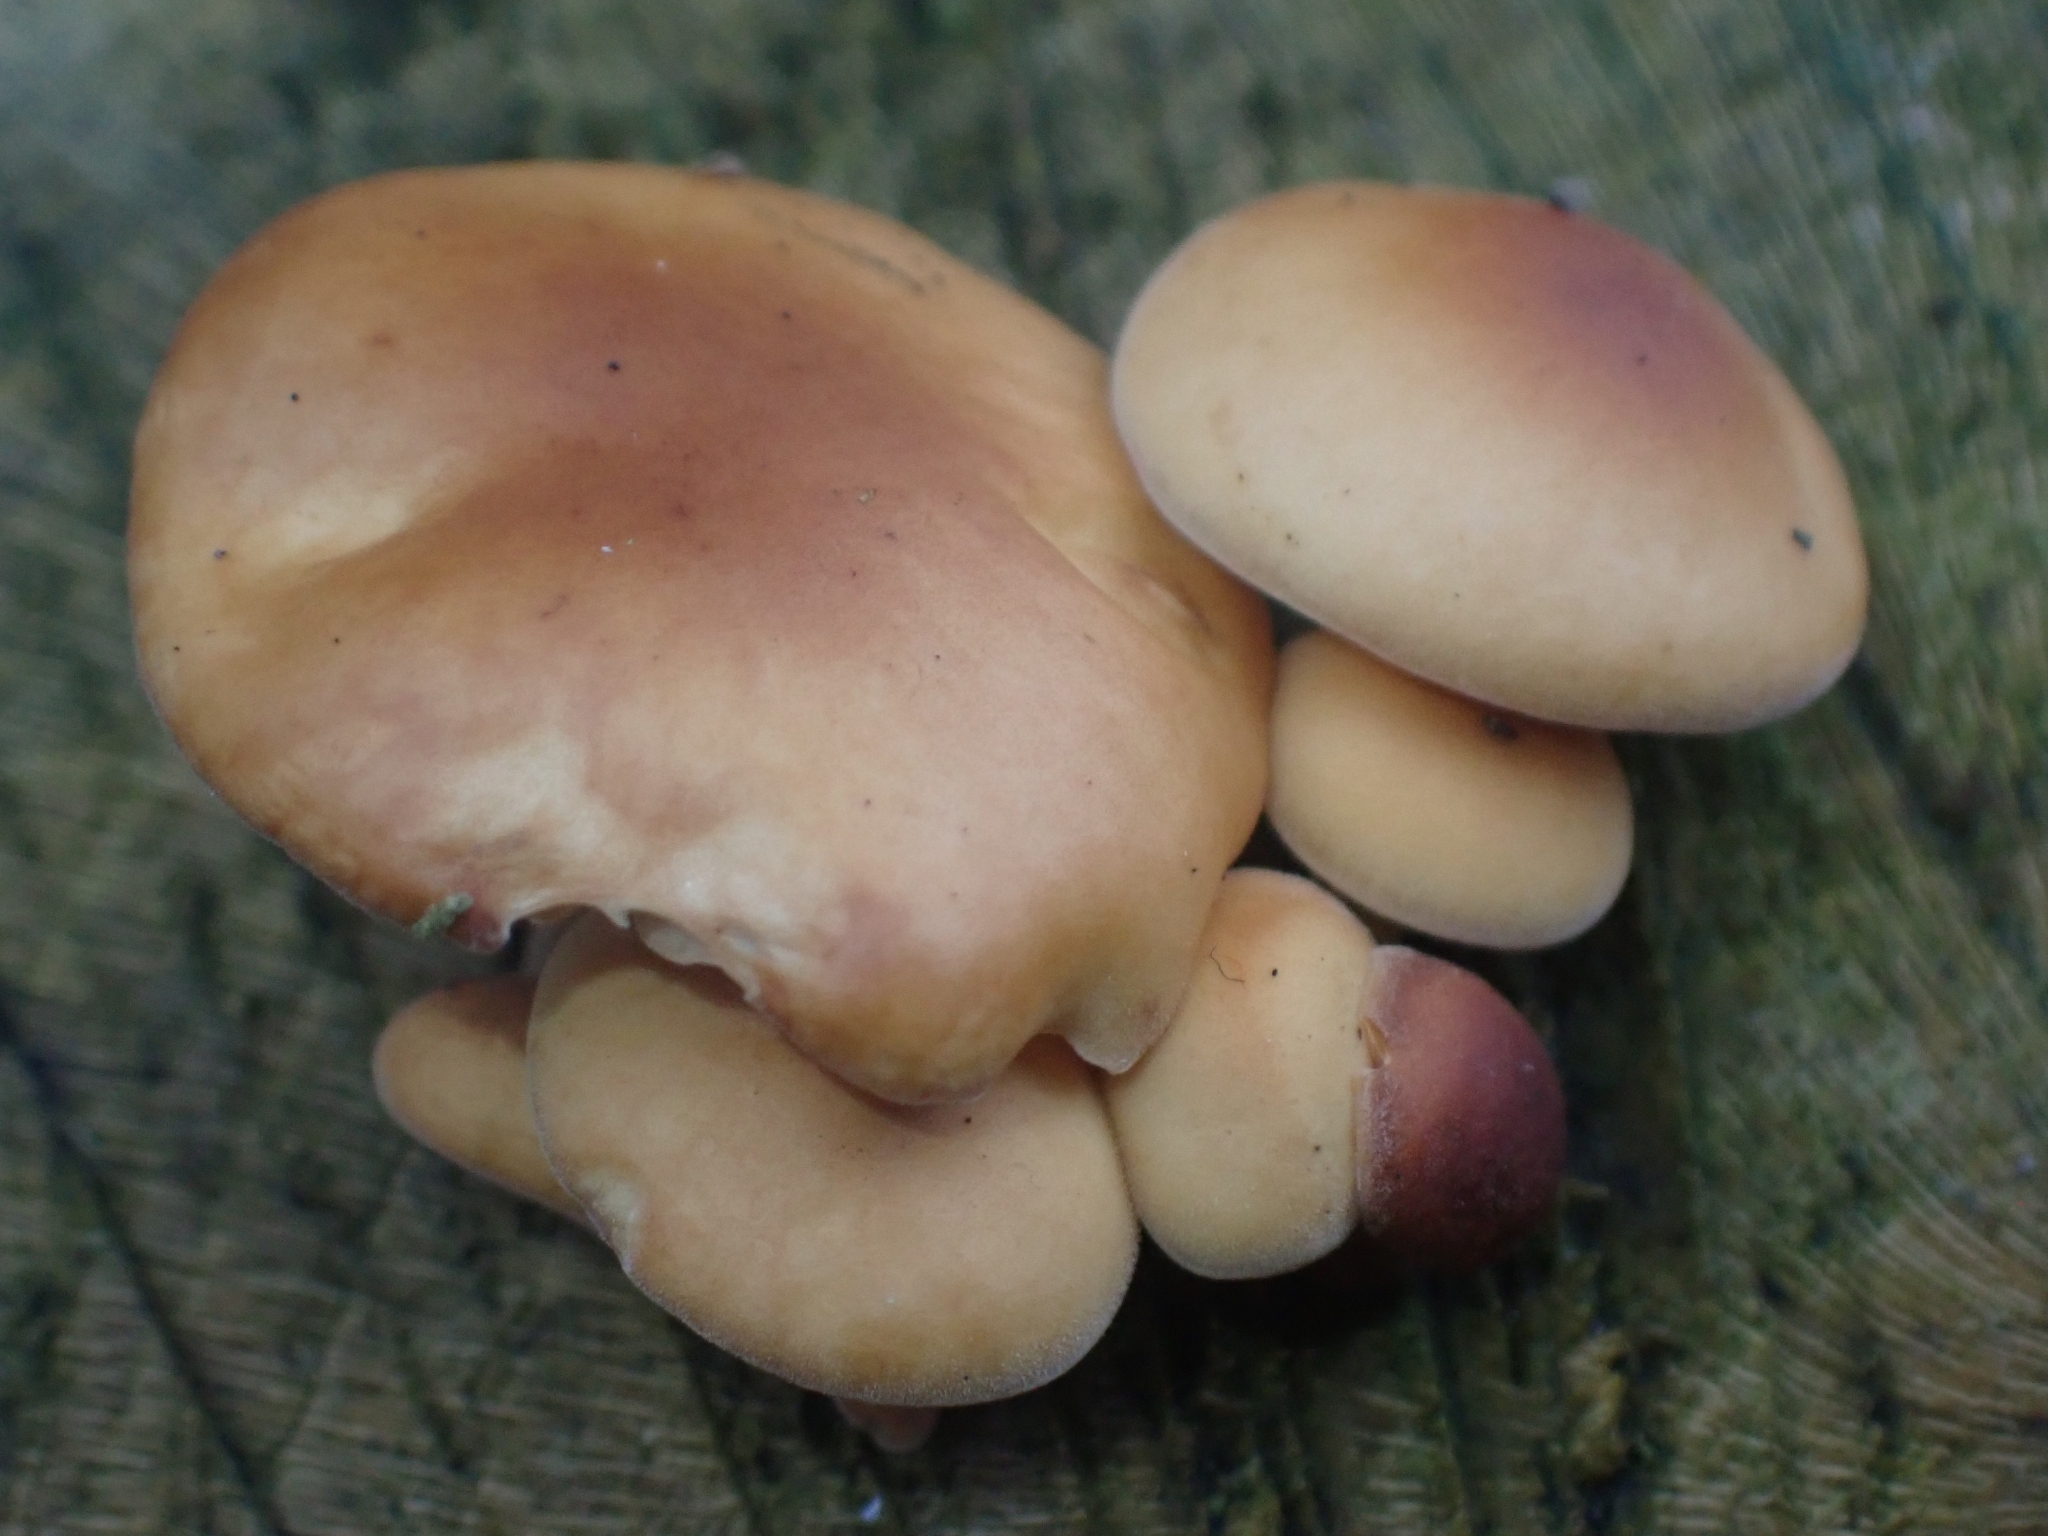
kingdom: Fungi
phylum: Basidiomycota
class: Agaricomycetes
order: Agaricales
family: Physalacriaceae
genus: Flammulina
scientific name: Flammulina
